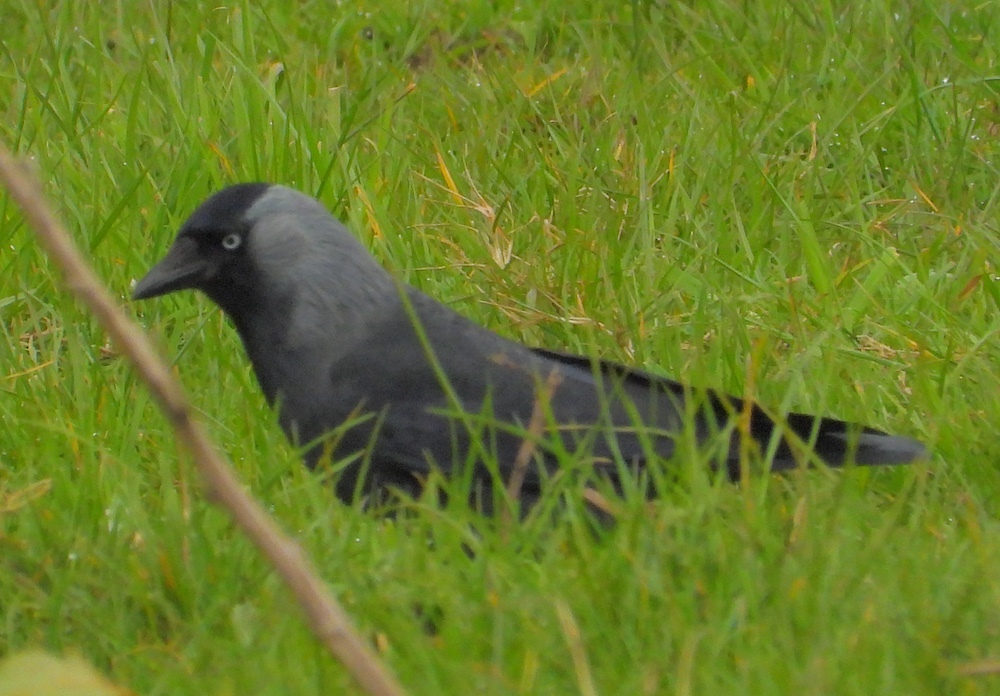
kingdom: Animalia
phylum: Chordata
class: Aves
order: Passeriformes
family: Corvidae
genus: Coloeus
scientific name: Coloeus monedula
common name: Western jackdaw
